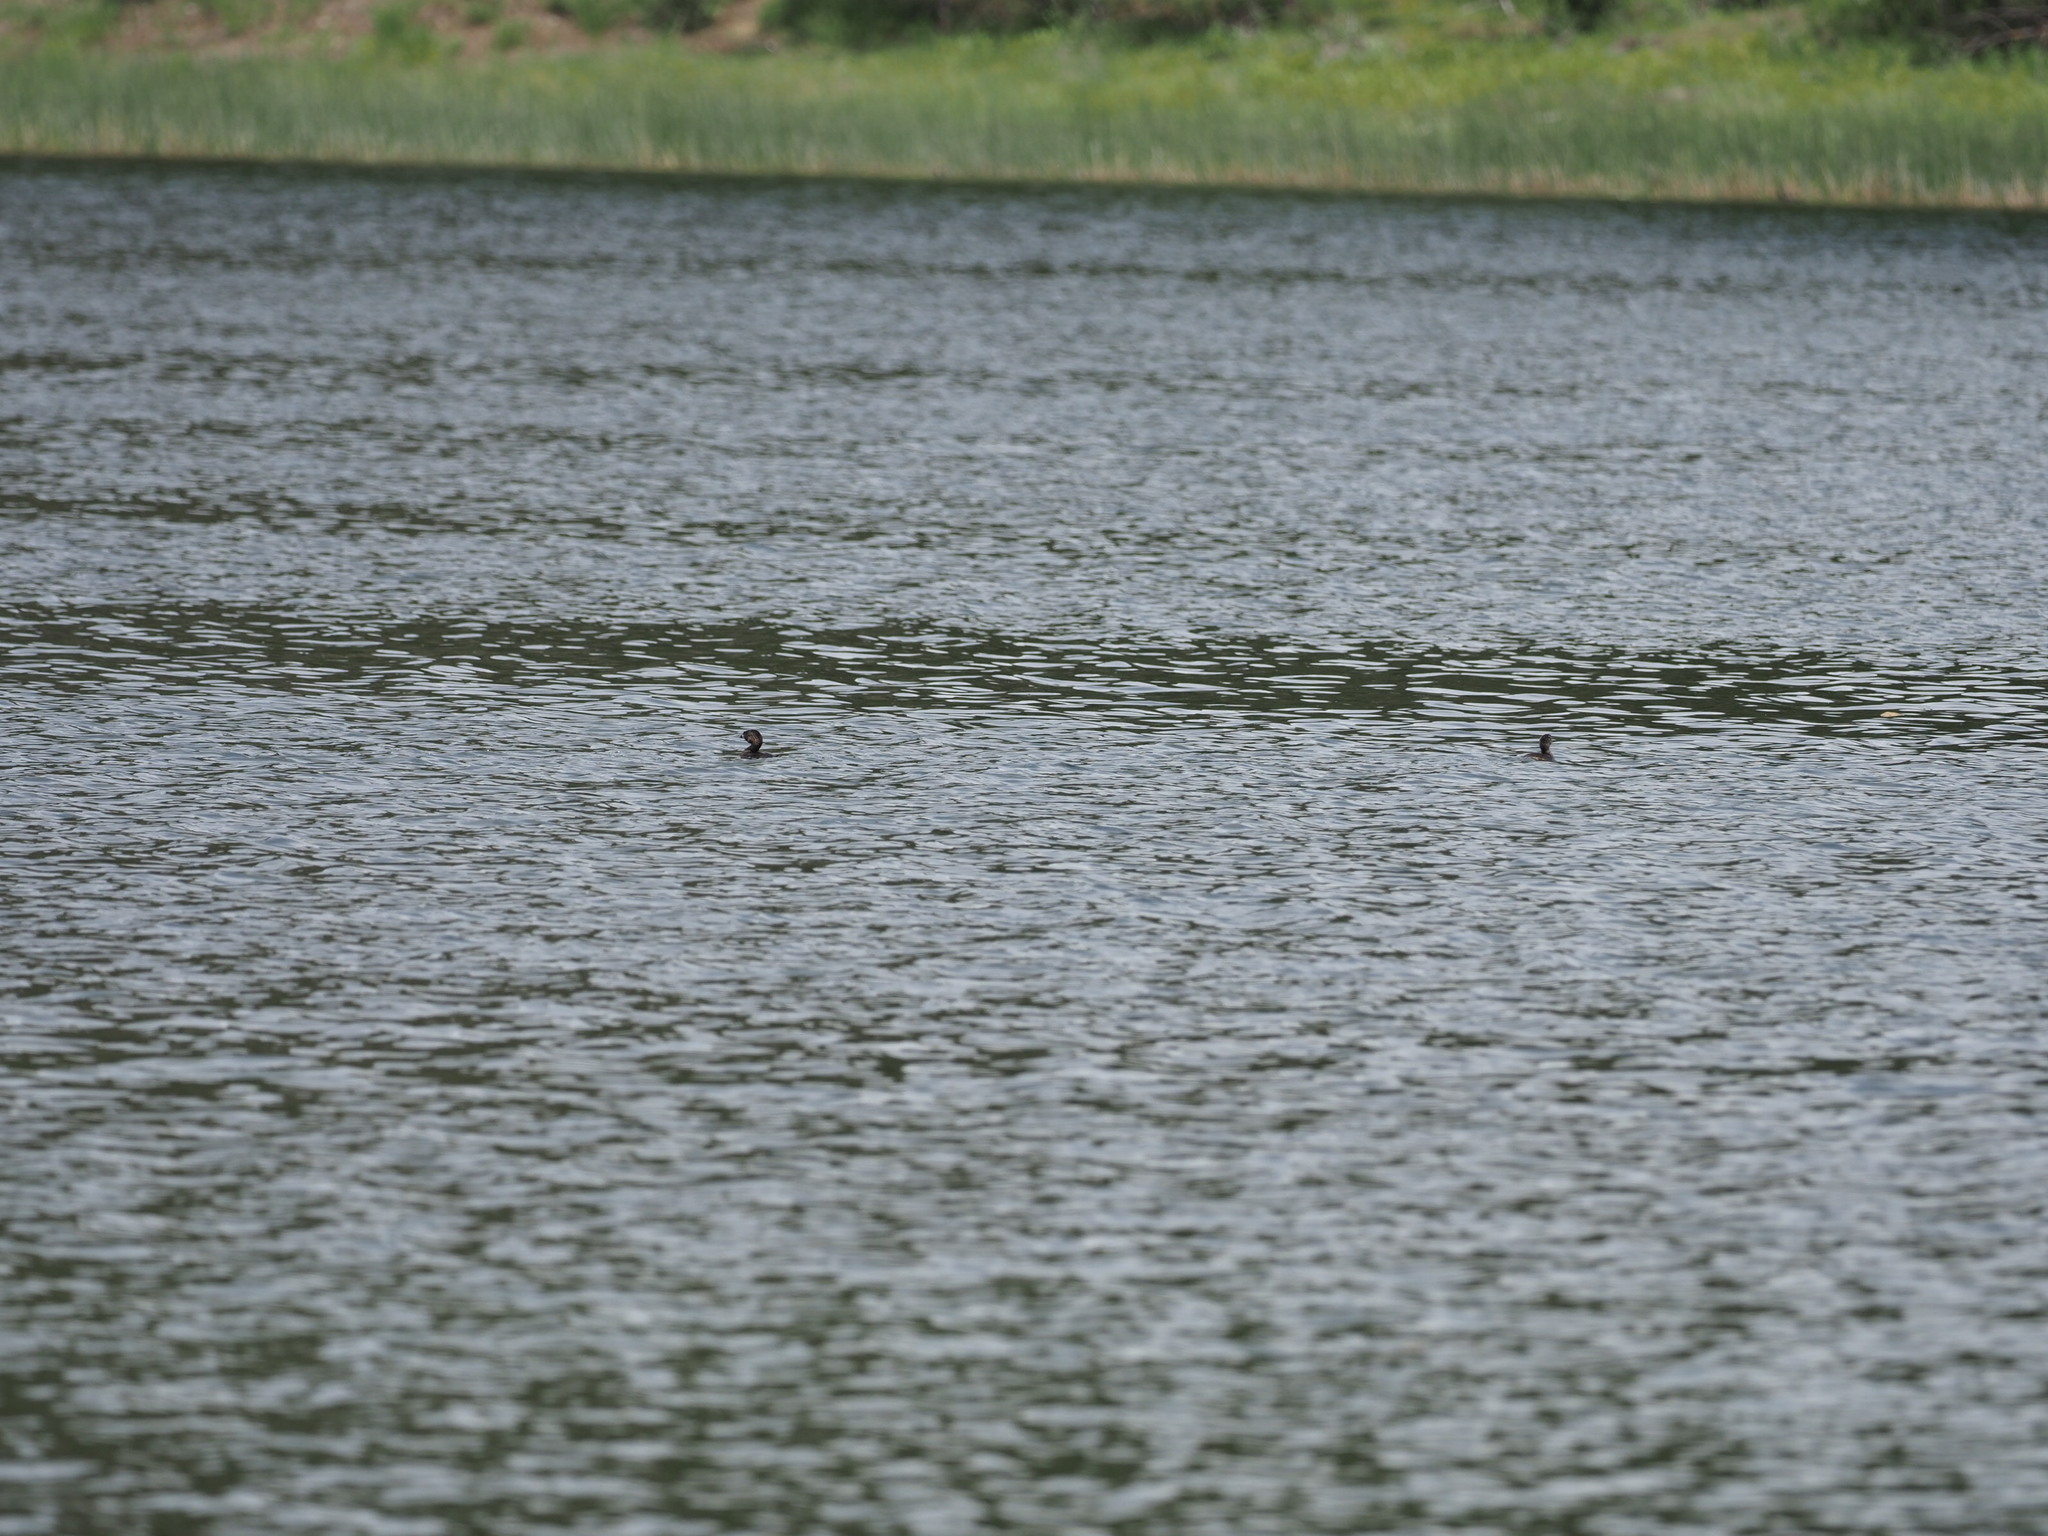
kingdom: Animalia
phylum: Chordata
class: Aves
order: Podicipediformes
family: Podicipedidae
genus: Podilymbus
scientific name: Podilymbus podiceps
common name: Pied-billed grebe
